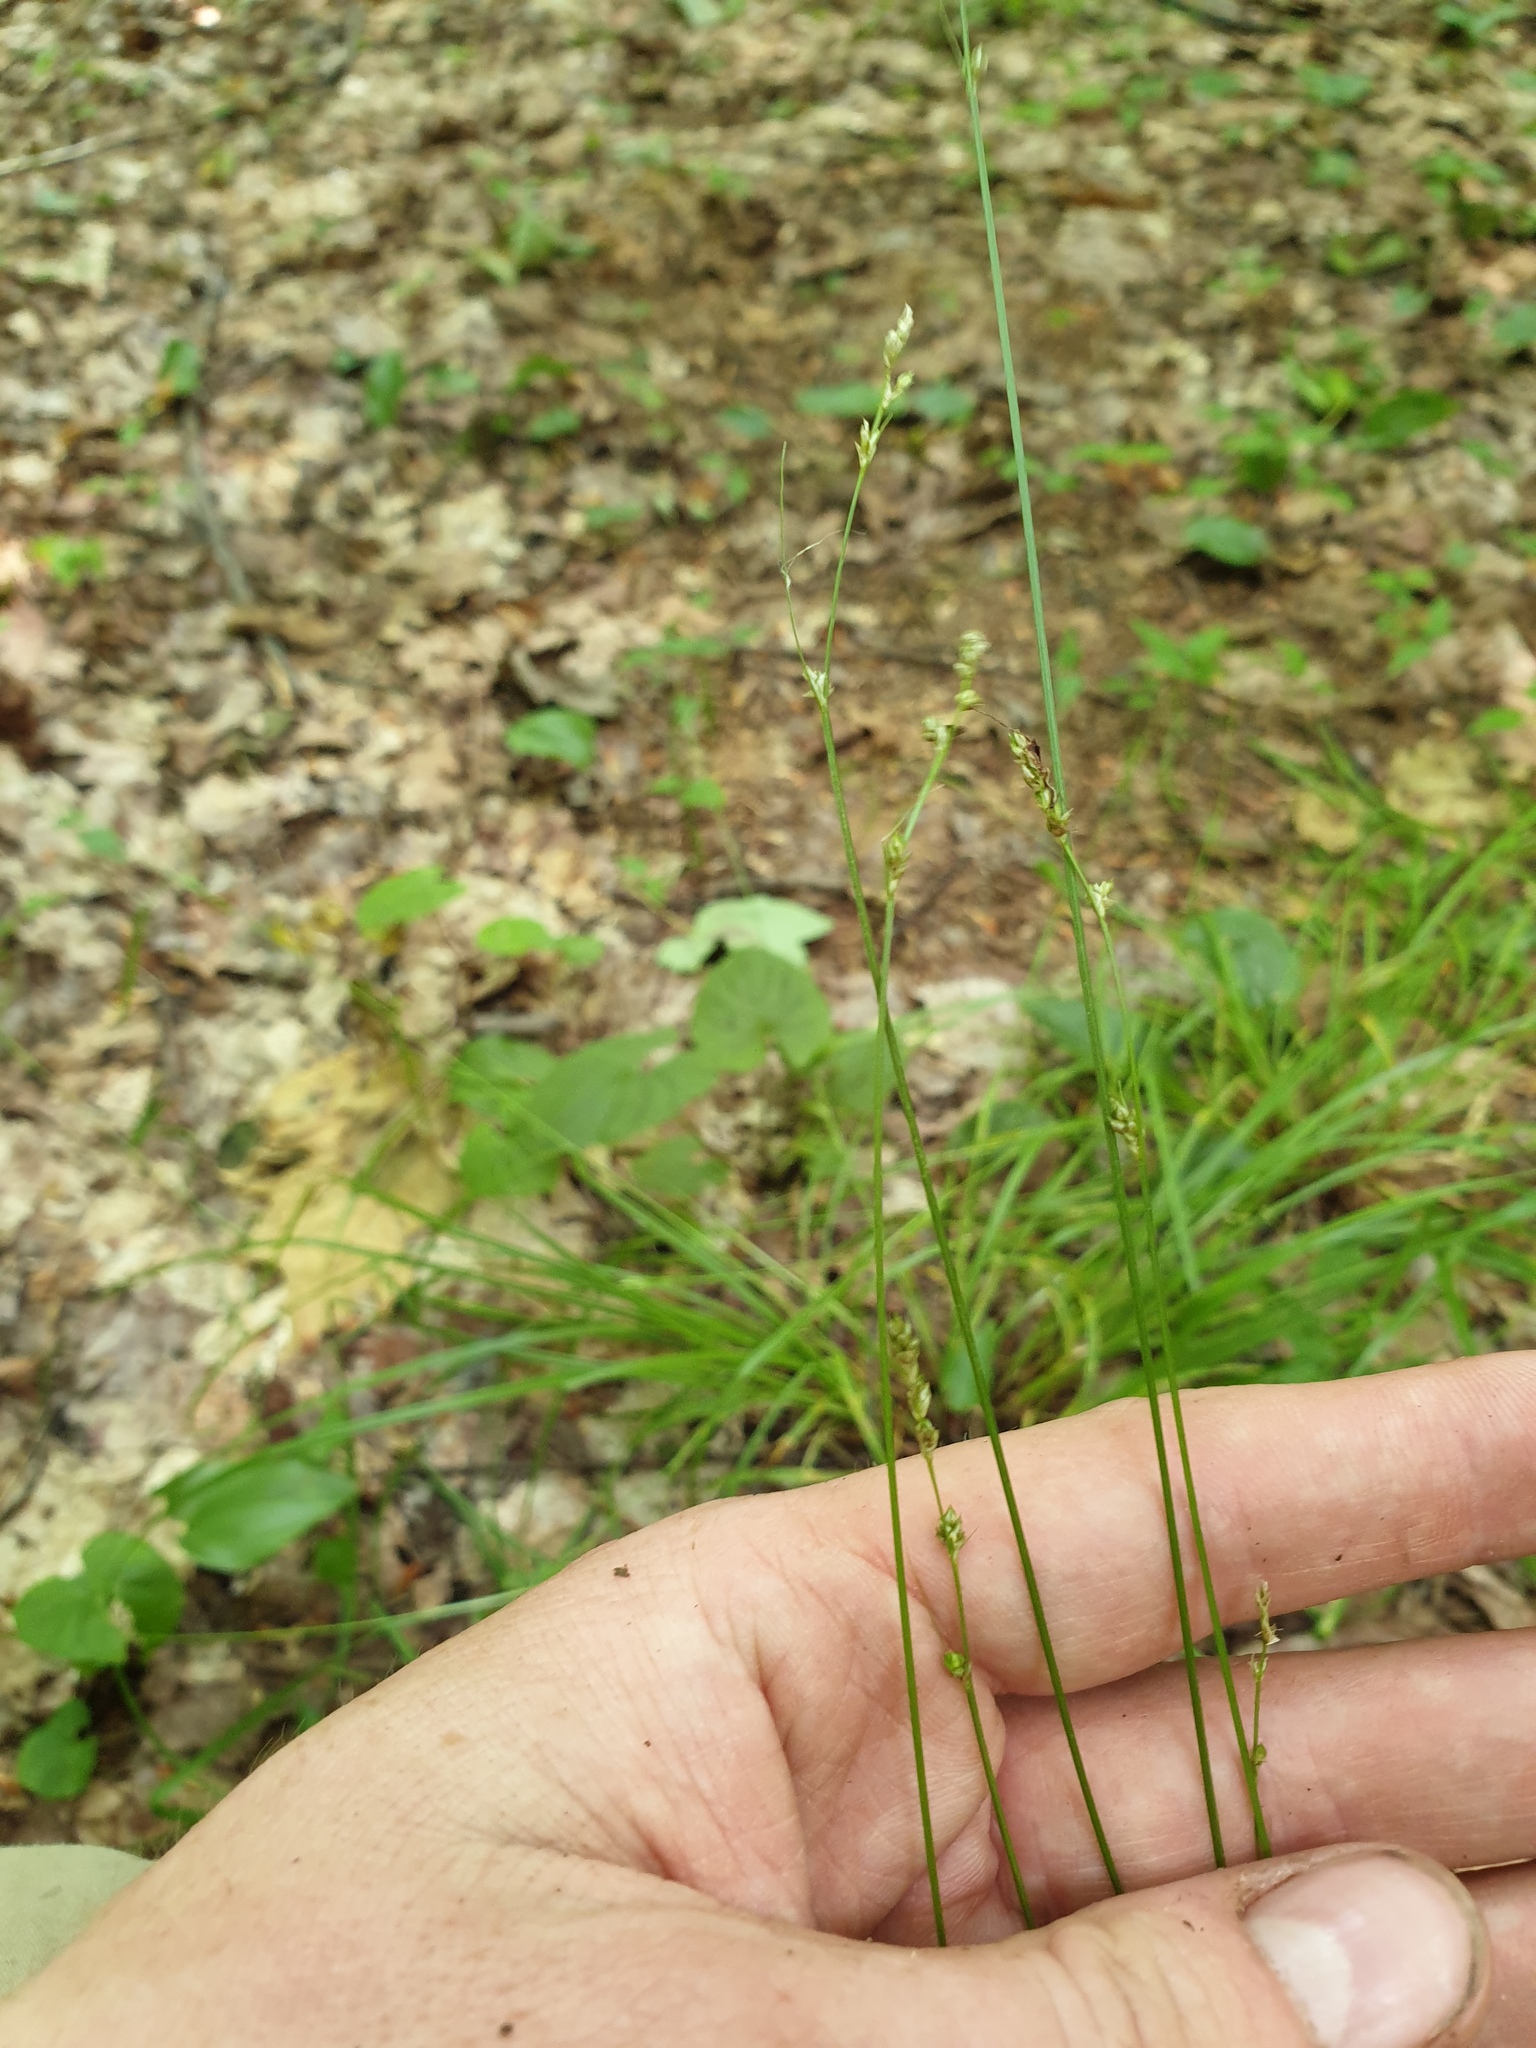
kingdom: Plantae
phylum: Tracheophyta
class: Liliopsida
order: Poales
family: Cyperaceae
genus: Carex
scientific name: Carex brunnescens
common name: Brown sedge
